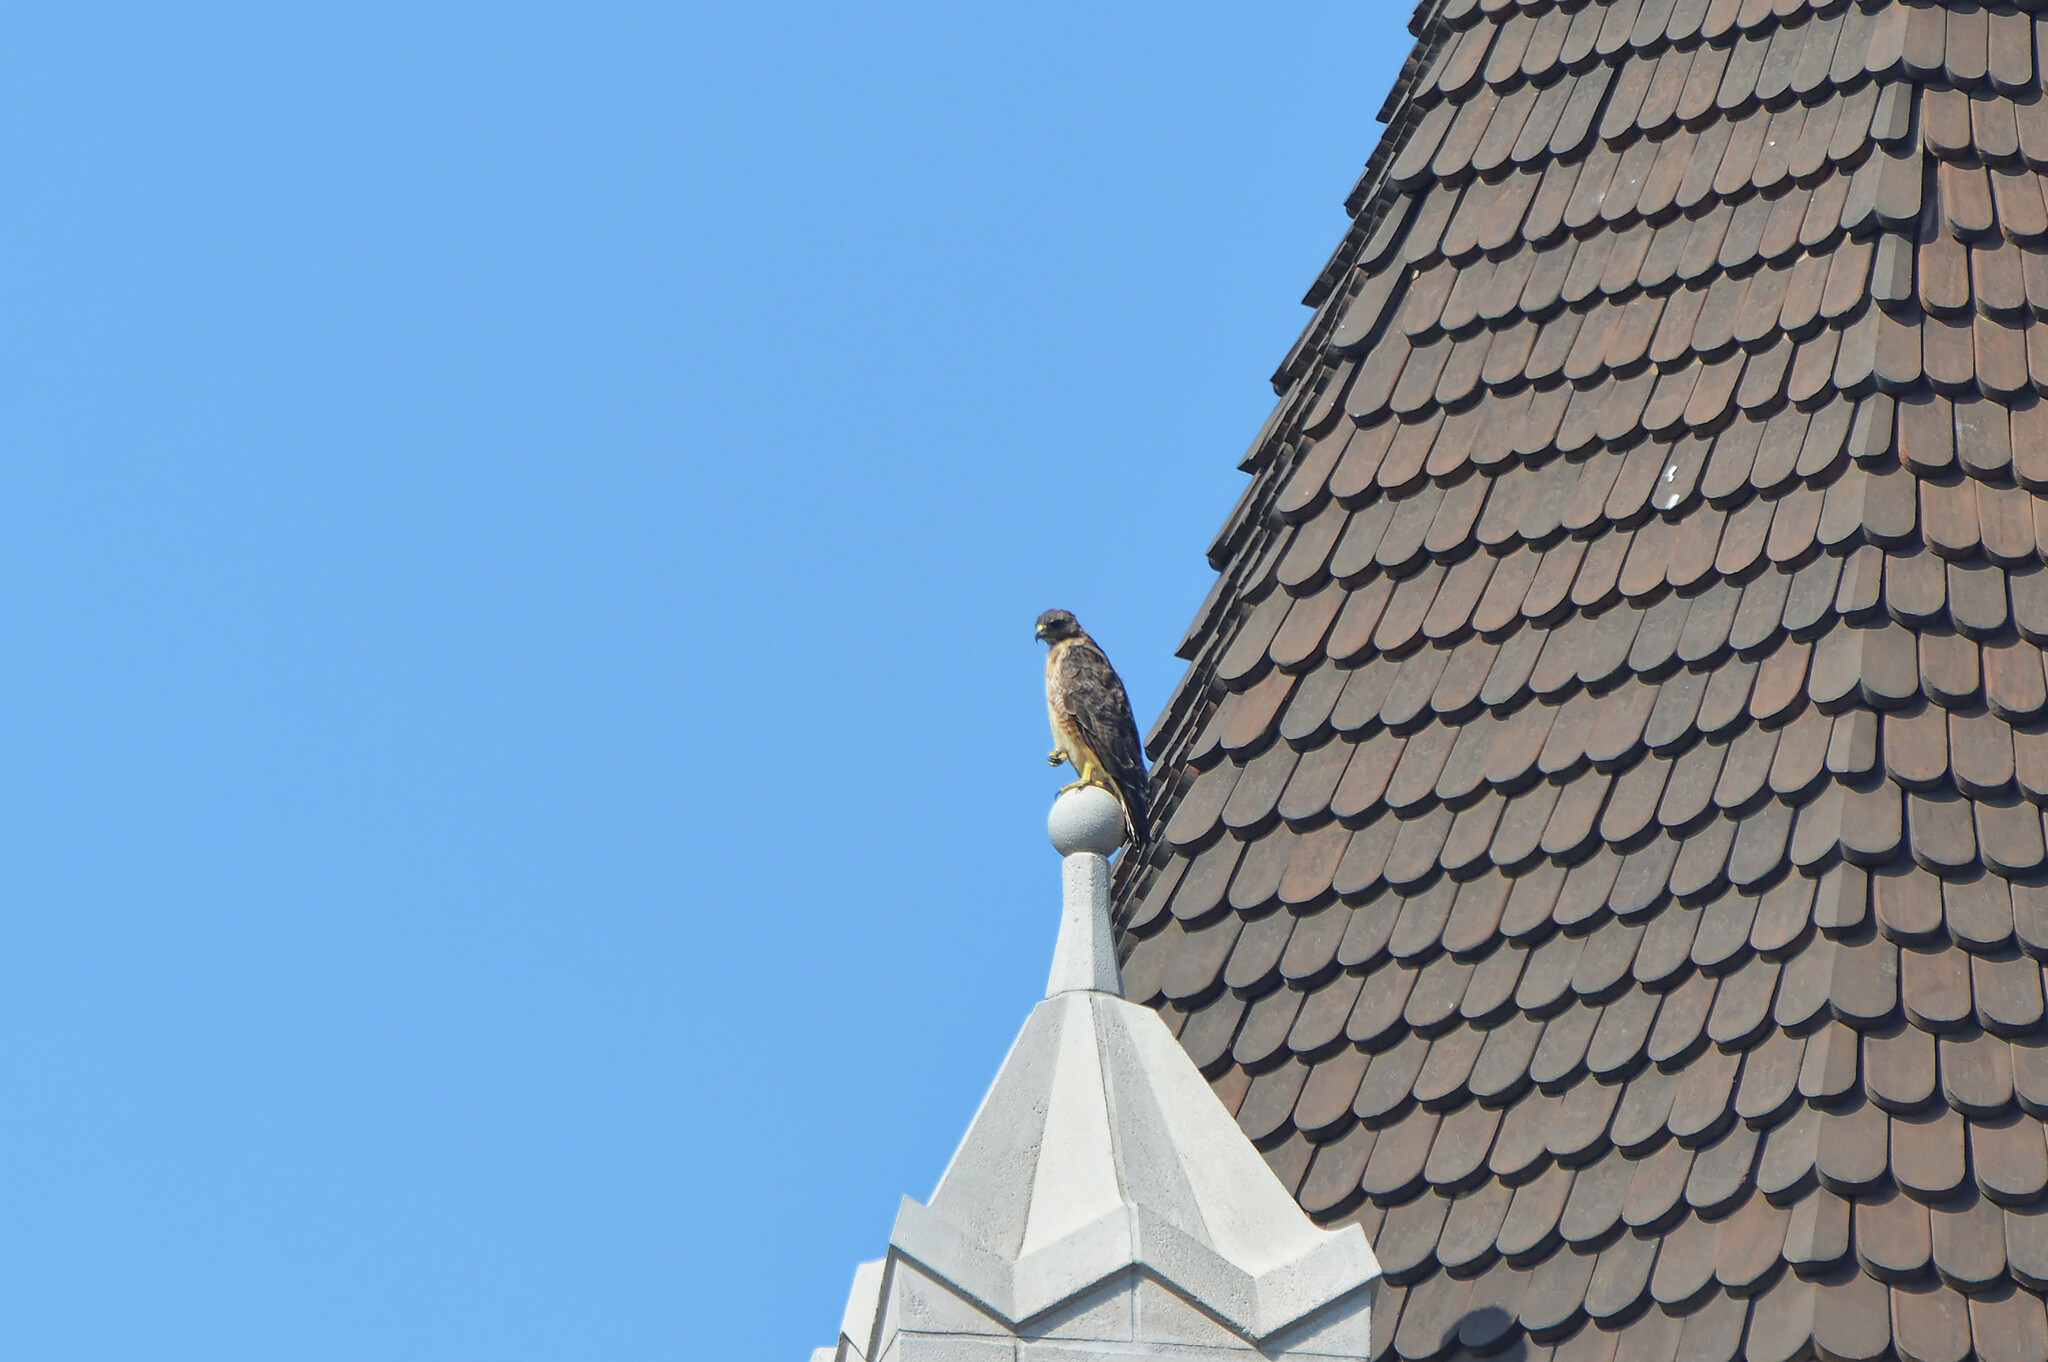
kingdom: Animalia
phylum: Chordata
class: Aves
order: Accipitriformes
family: Accipitridae
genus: Buteo
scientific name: Buteo jamaicensis
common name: Red-tailed hawk
